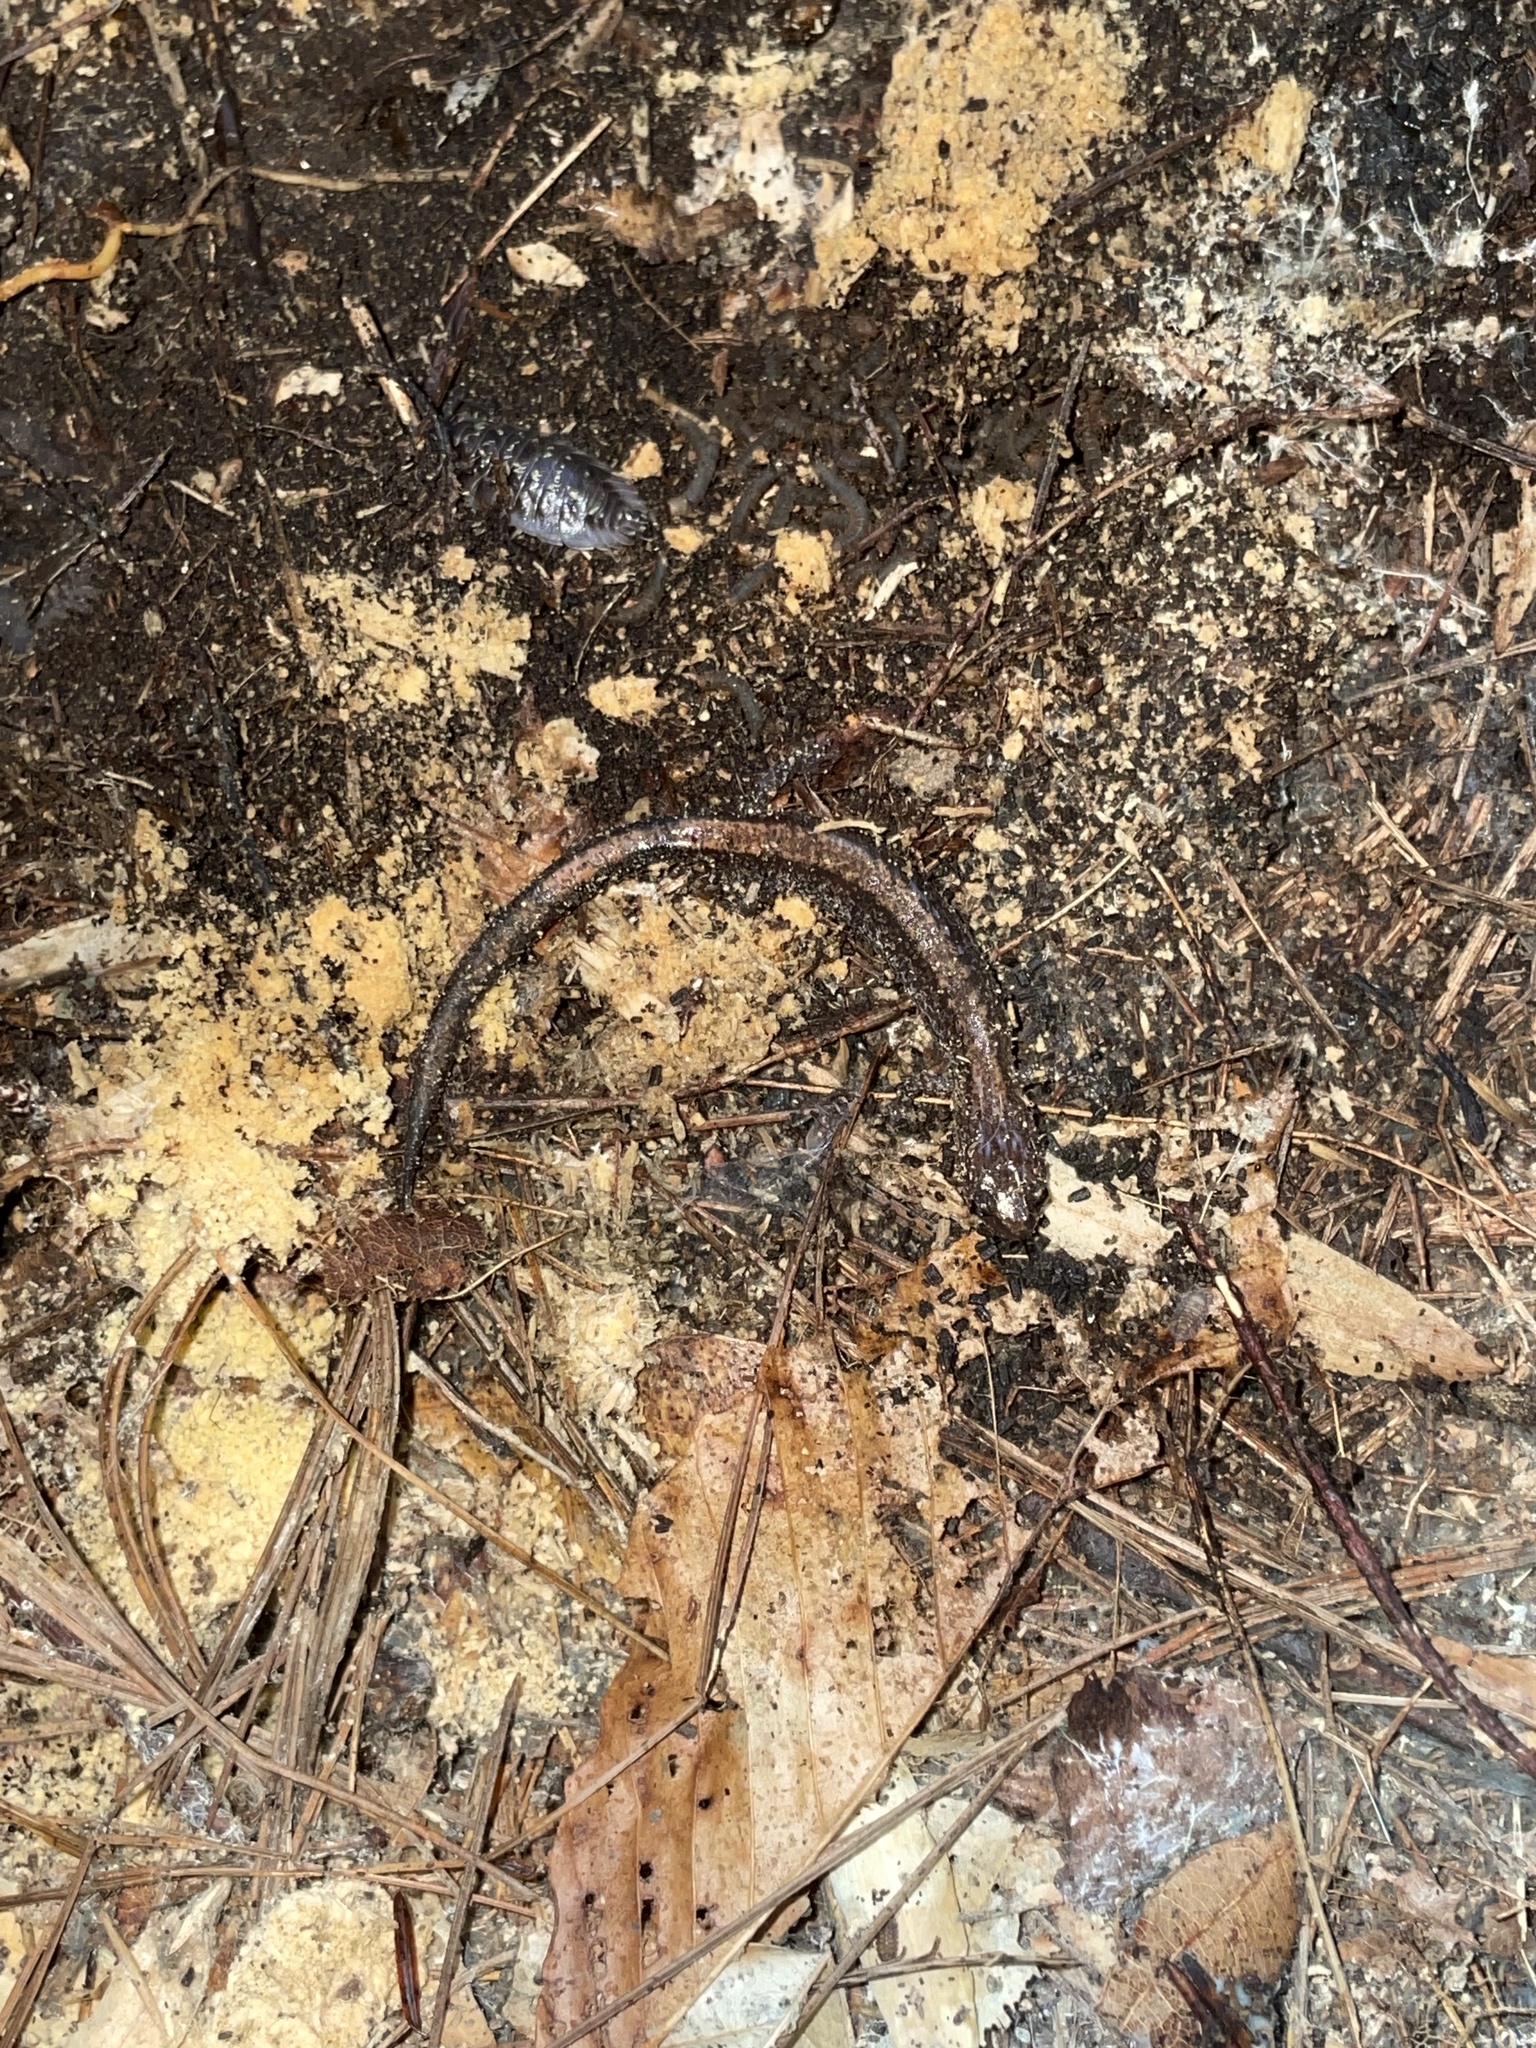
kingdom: Animalia
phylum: Chordata
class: Amphibia
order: Caudata
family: Plethodontidae
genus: Plethodon
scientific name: Plethodon cinereus
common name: Redback salamander
